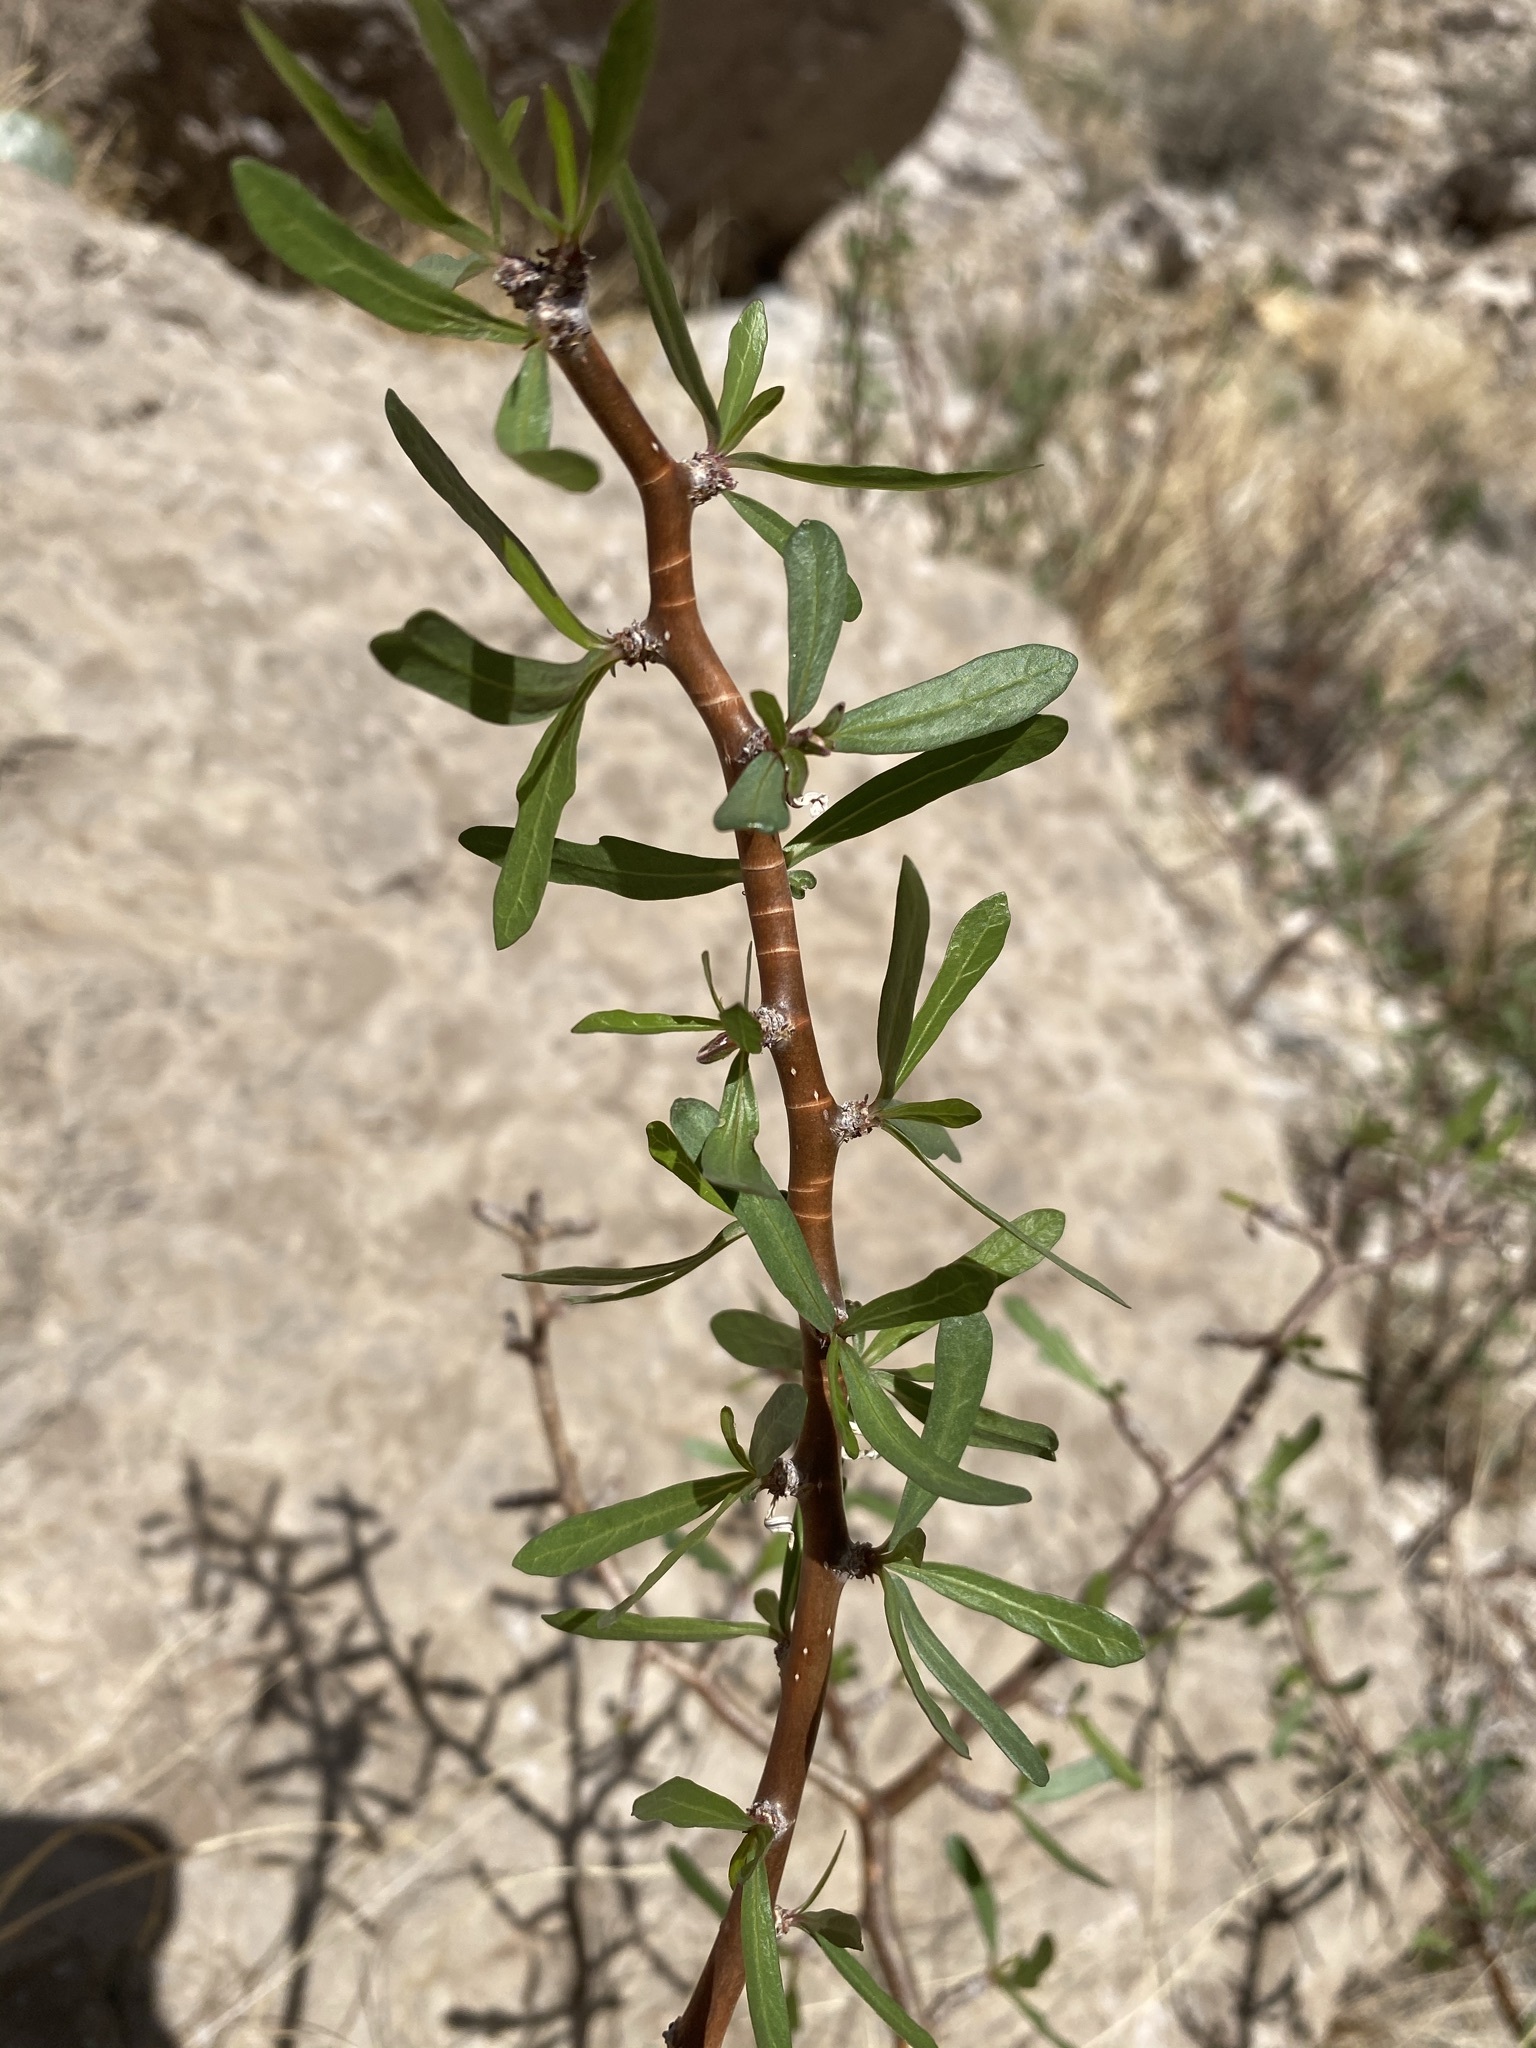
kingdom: Plantae
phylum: Tracheophyta
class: Magnoliopsida
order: Malpighiales
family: Euphorbiaceae
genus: Jatropha
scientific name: Jatropha dioica
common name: Leatherstem
